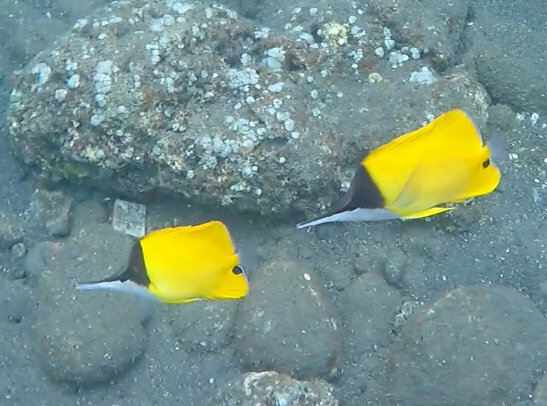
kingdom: Animalia
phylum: Chordata
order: Perciformes
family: Chaetodontidae
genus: Forcipiger
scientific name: Forcipiger flavissimus
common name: Forcepsfish
